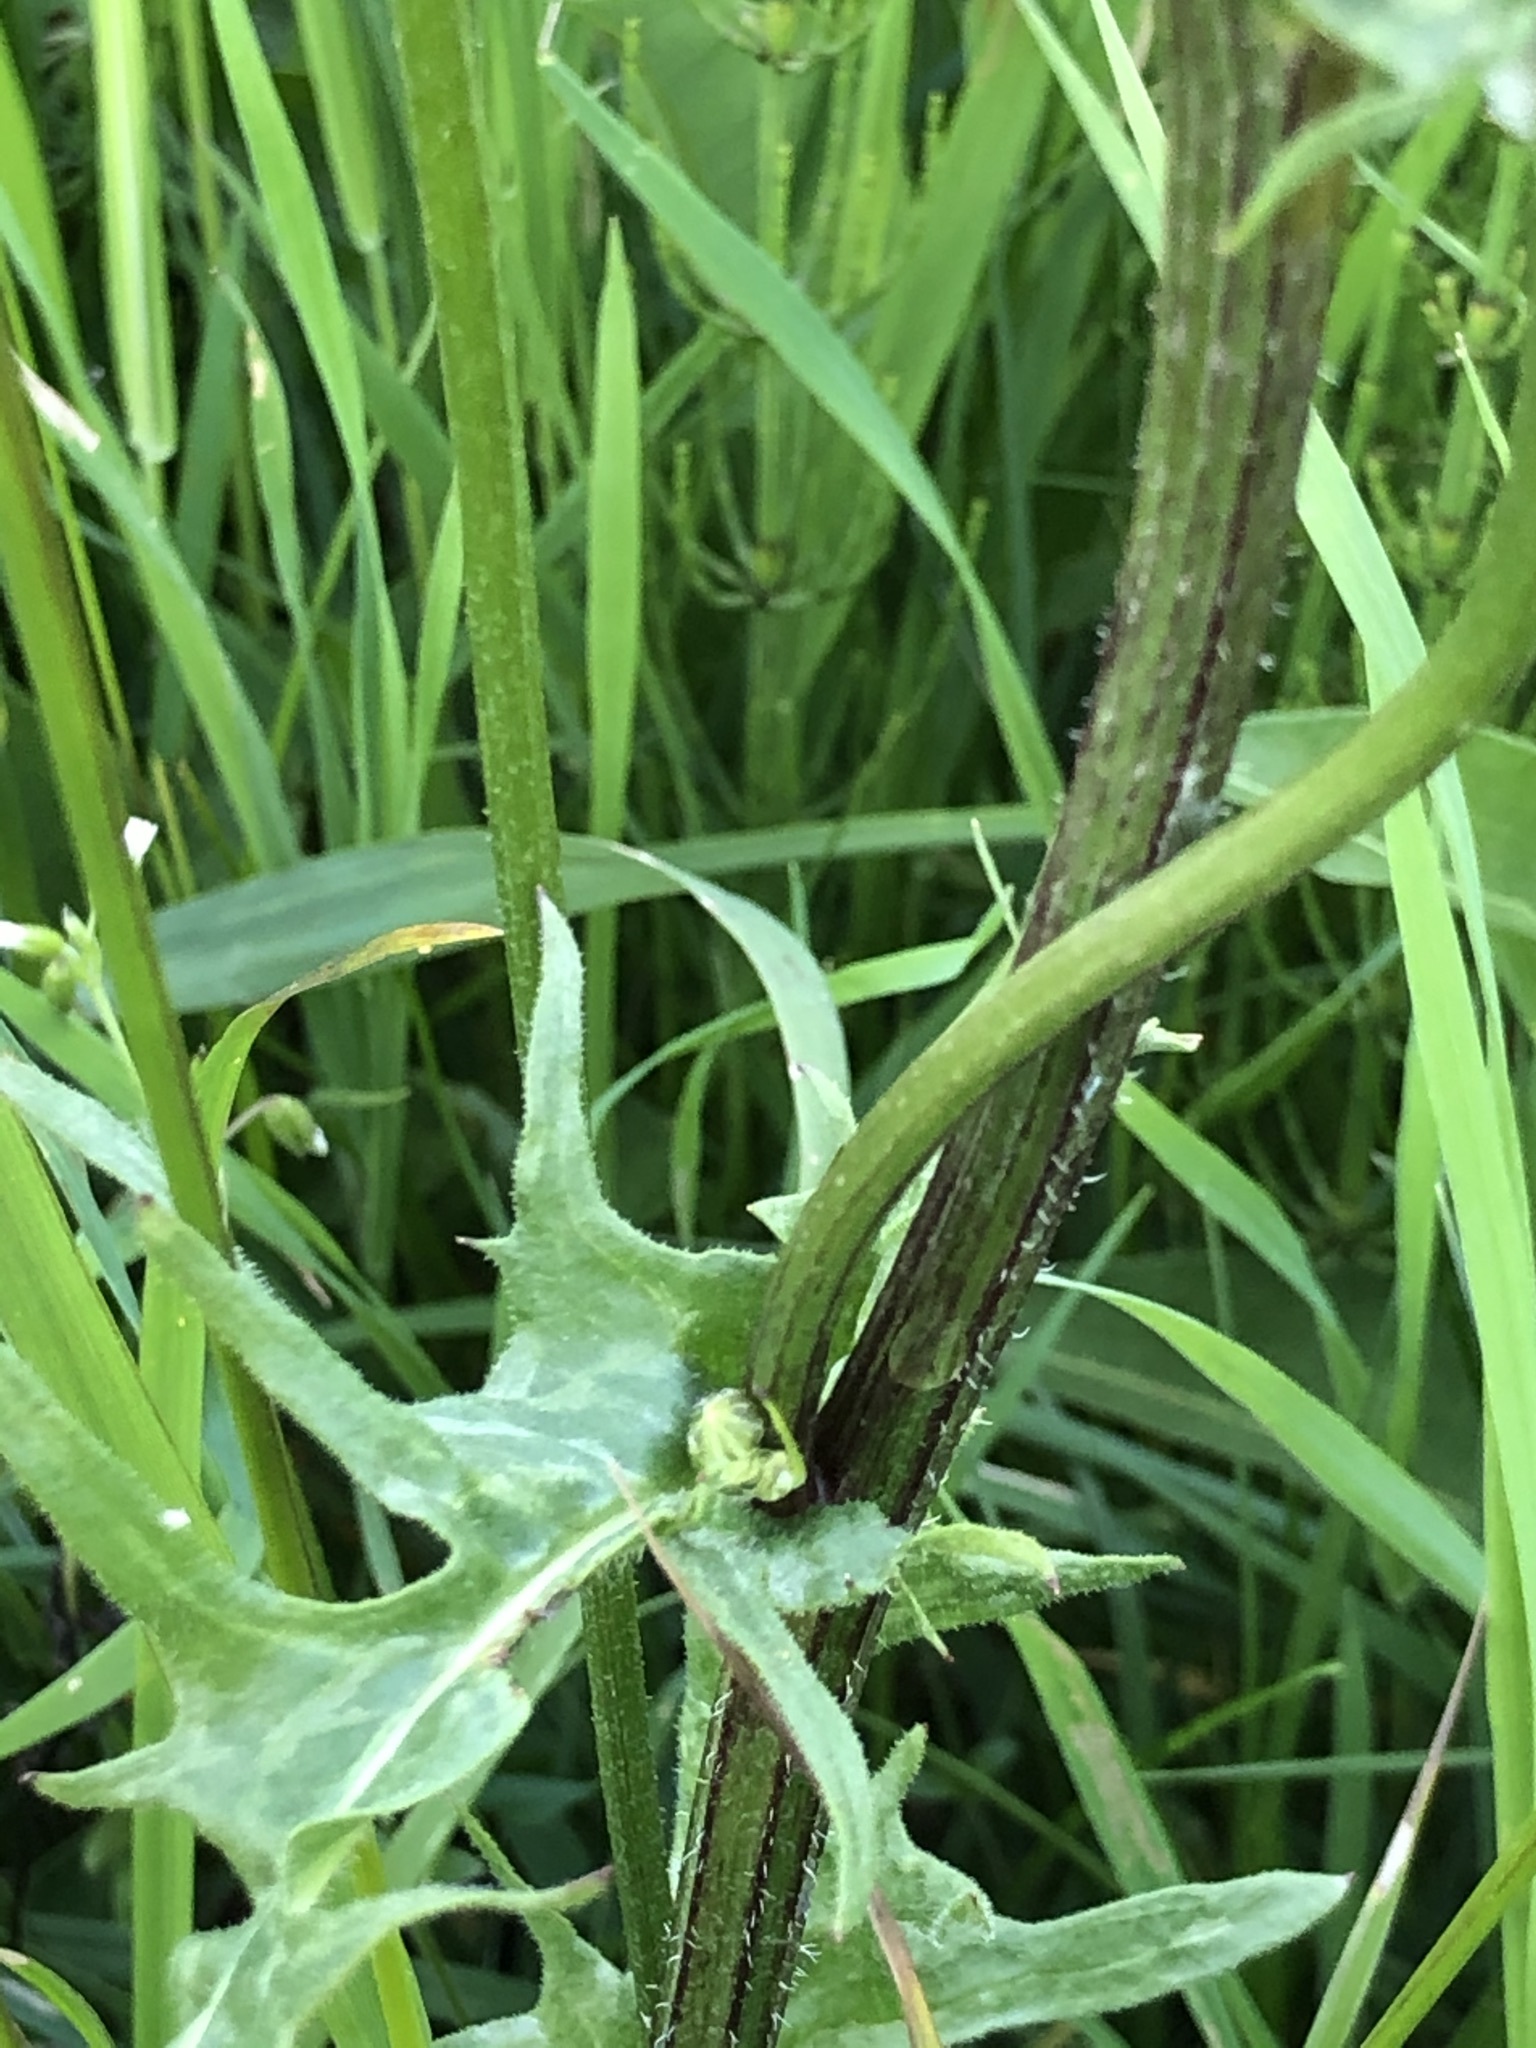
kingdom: Plantae
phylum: Tracheophyta
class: Magnoliopsida
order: Asterales
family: Asteraceae
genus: Crepis
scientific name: Crepis biennis
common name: Rough hawk's-beard
